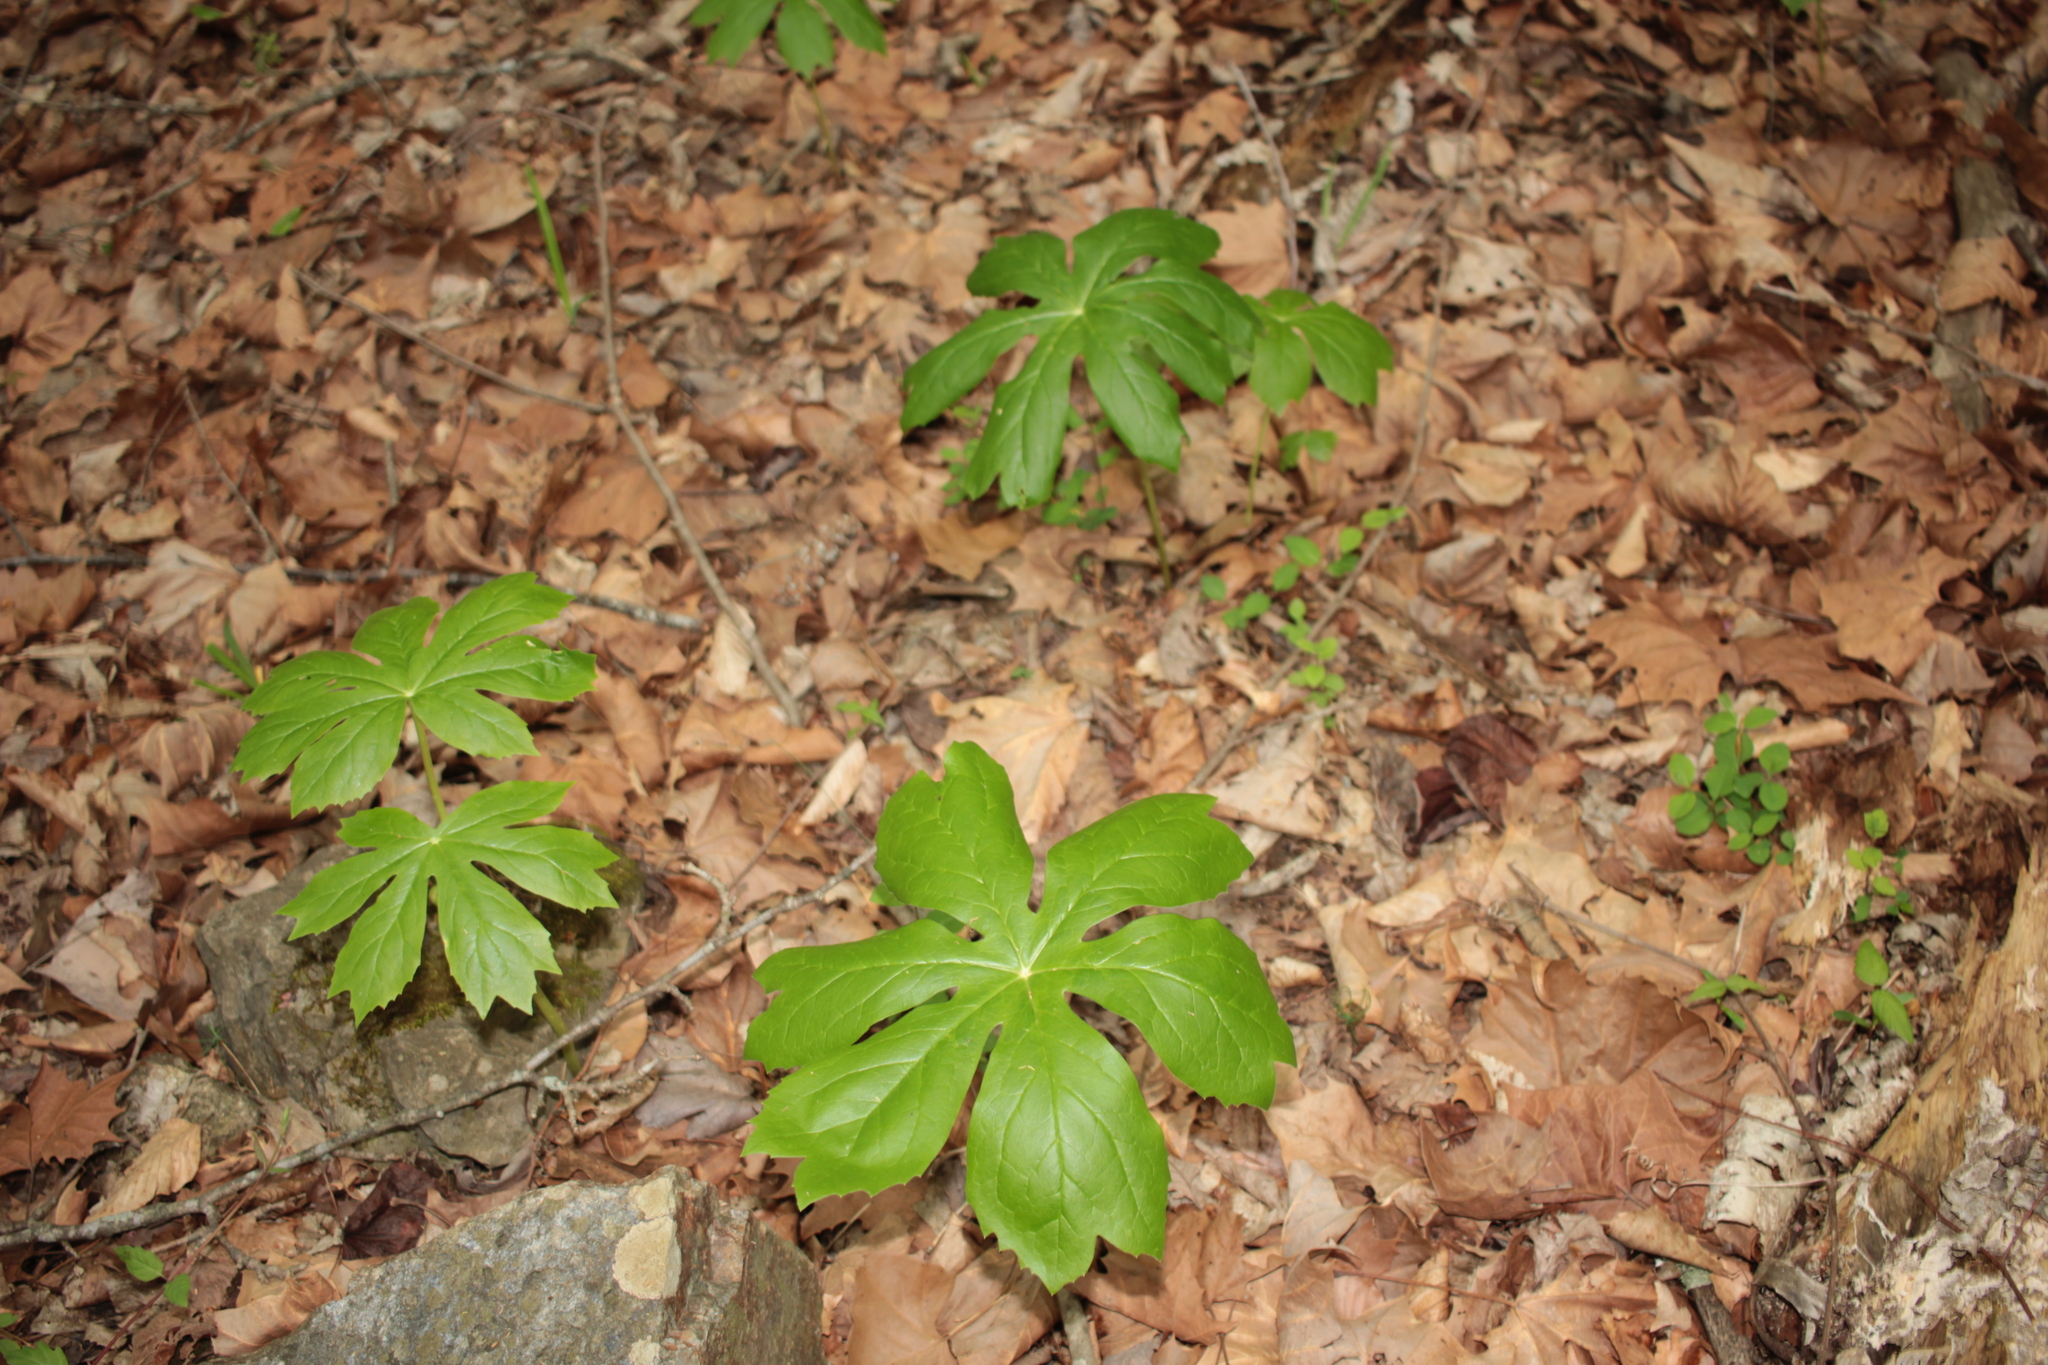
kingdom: Plantae
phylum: Tracheophyta
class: Magnoliopsida
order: Ranunculales
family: Berberidaceae
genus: Podophyllum
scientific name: Podophyllum peltatum
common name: Wild mandrake
